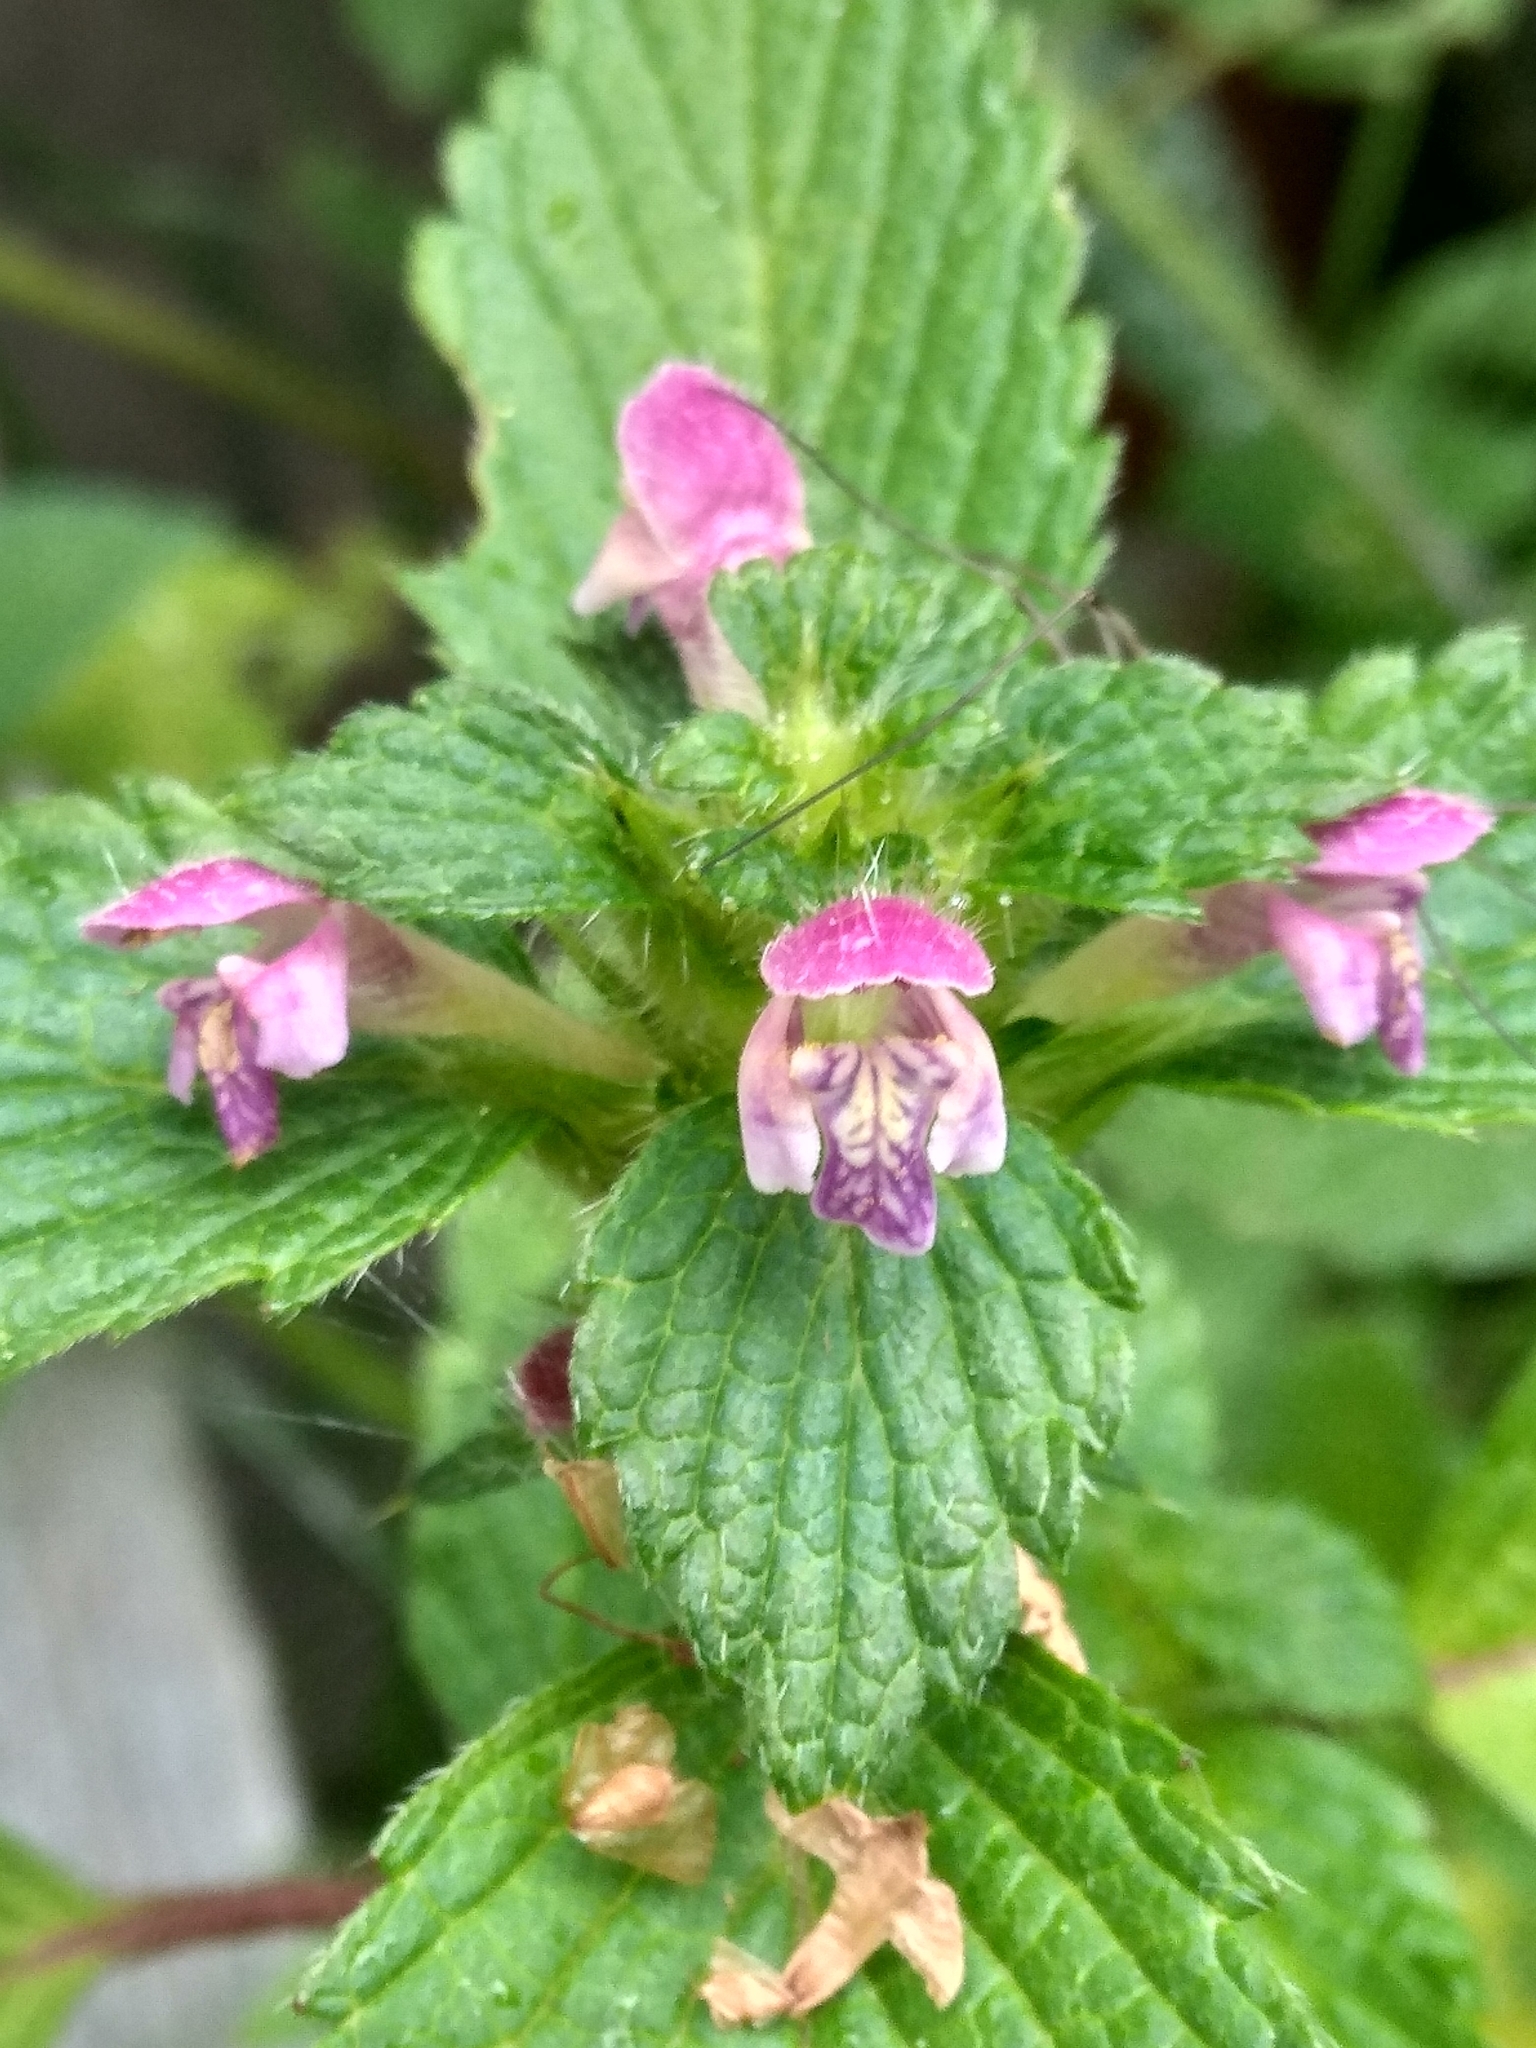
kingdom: Plantae
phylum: Tracheophyta
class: Magnoliopsida
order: Lamiales
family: Lamiaceae
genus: Galeopsis
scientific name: Galeopsis bifida
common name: Bifid hemp-nettle
